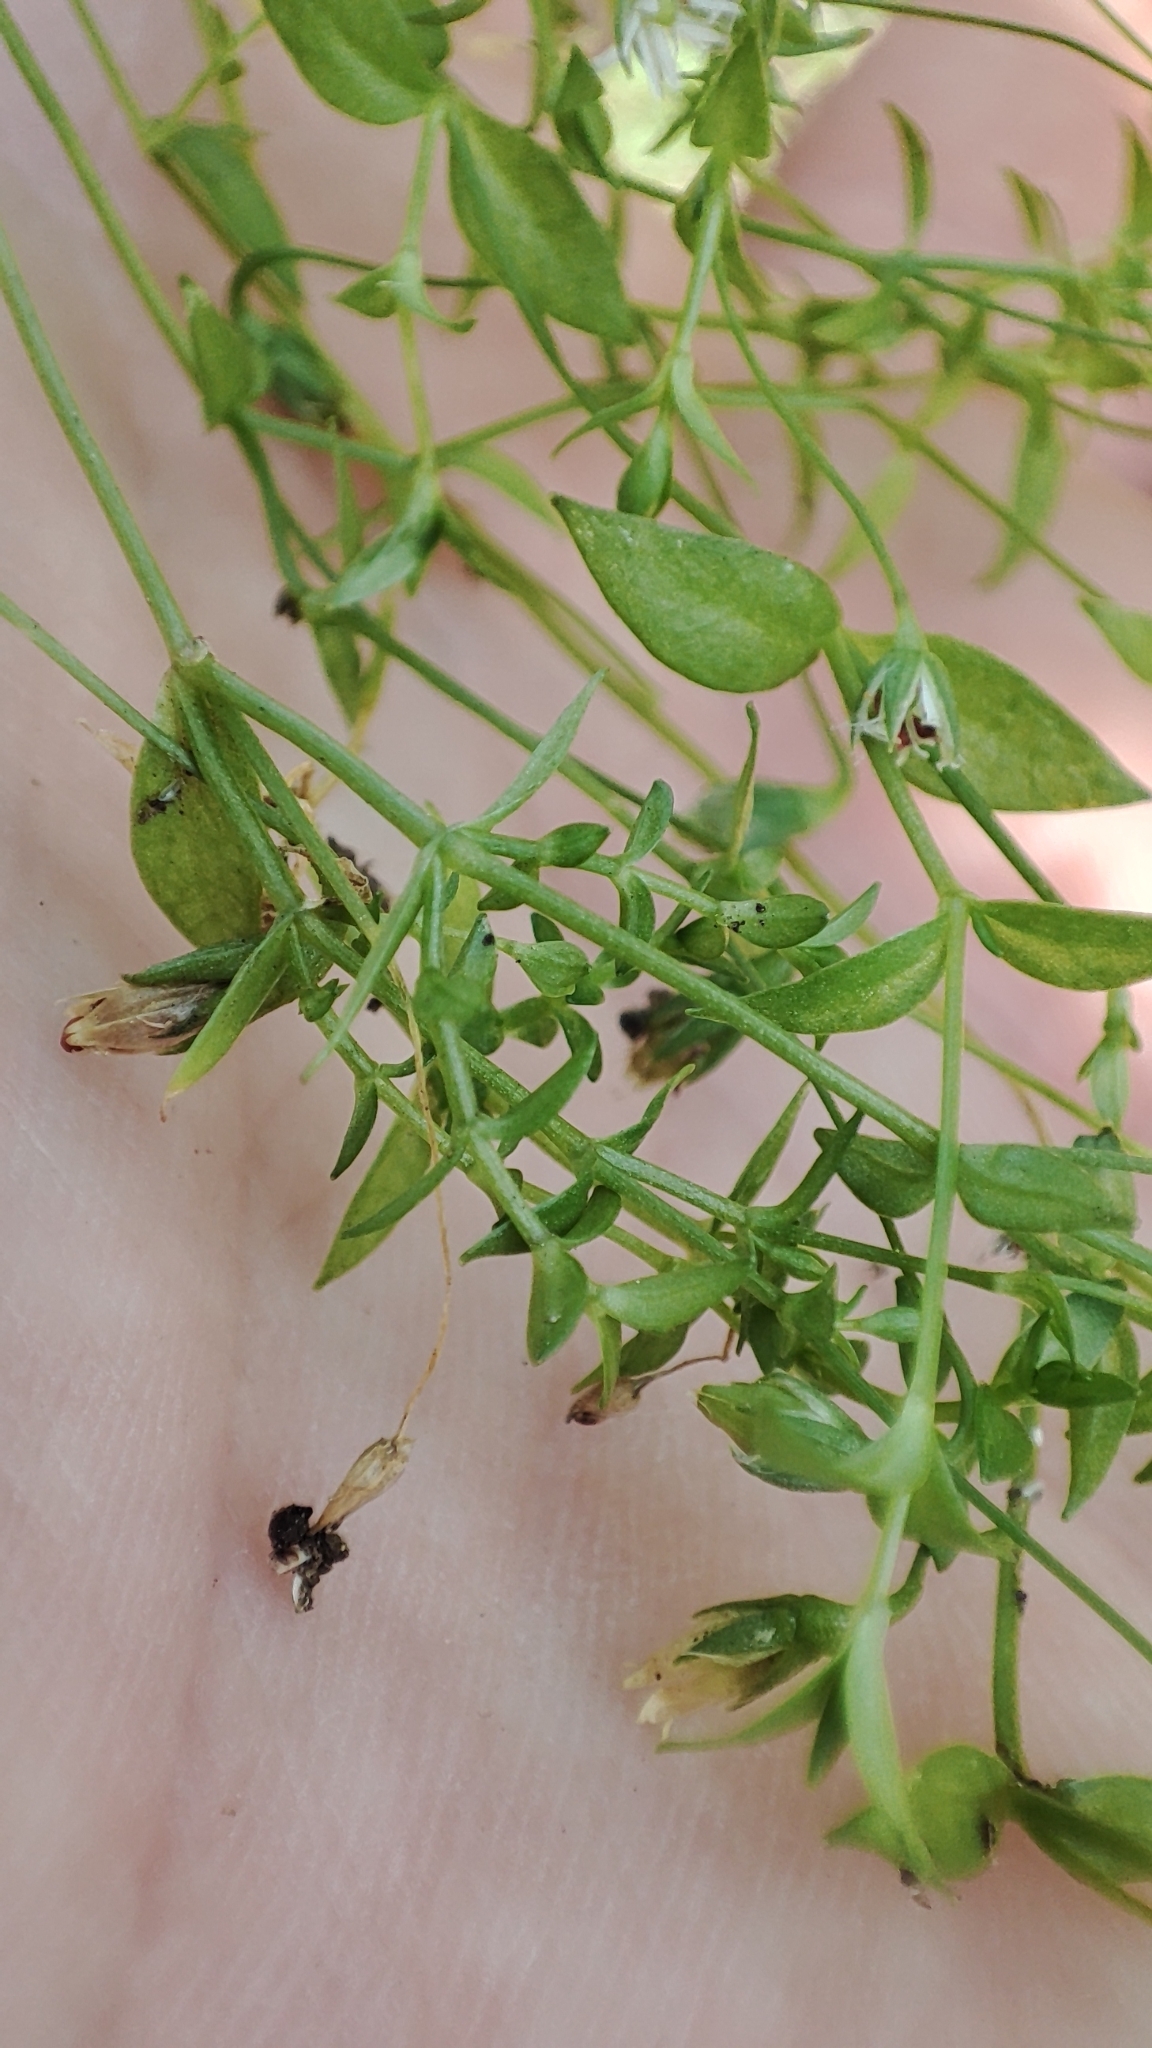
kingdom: Plantae
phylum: Tracheophyta
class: Magnoliopsida
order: Caryophyllales
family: Caryophyllaceae
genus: Stellaria
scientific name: Stellaria crassifolia
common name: Fleshy starwort
